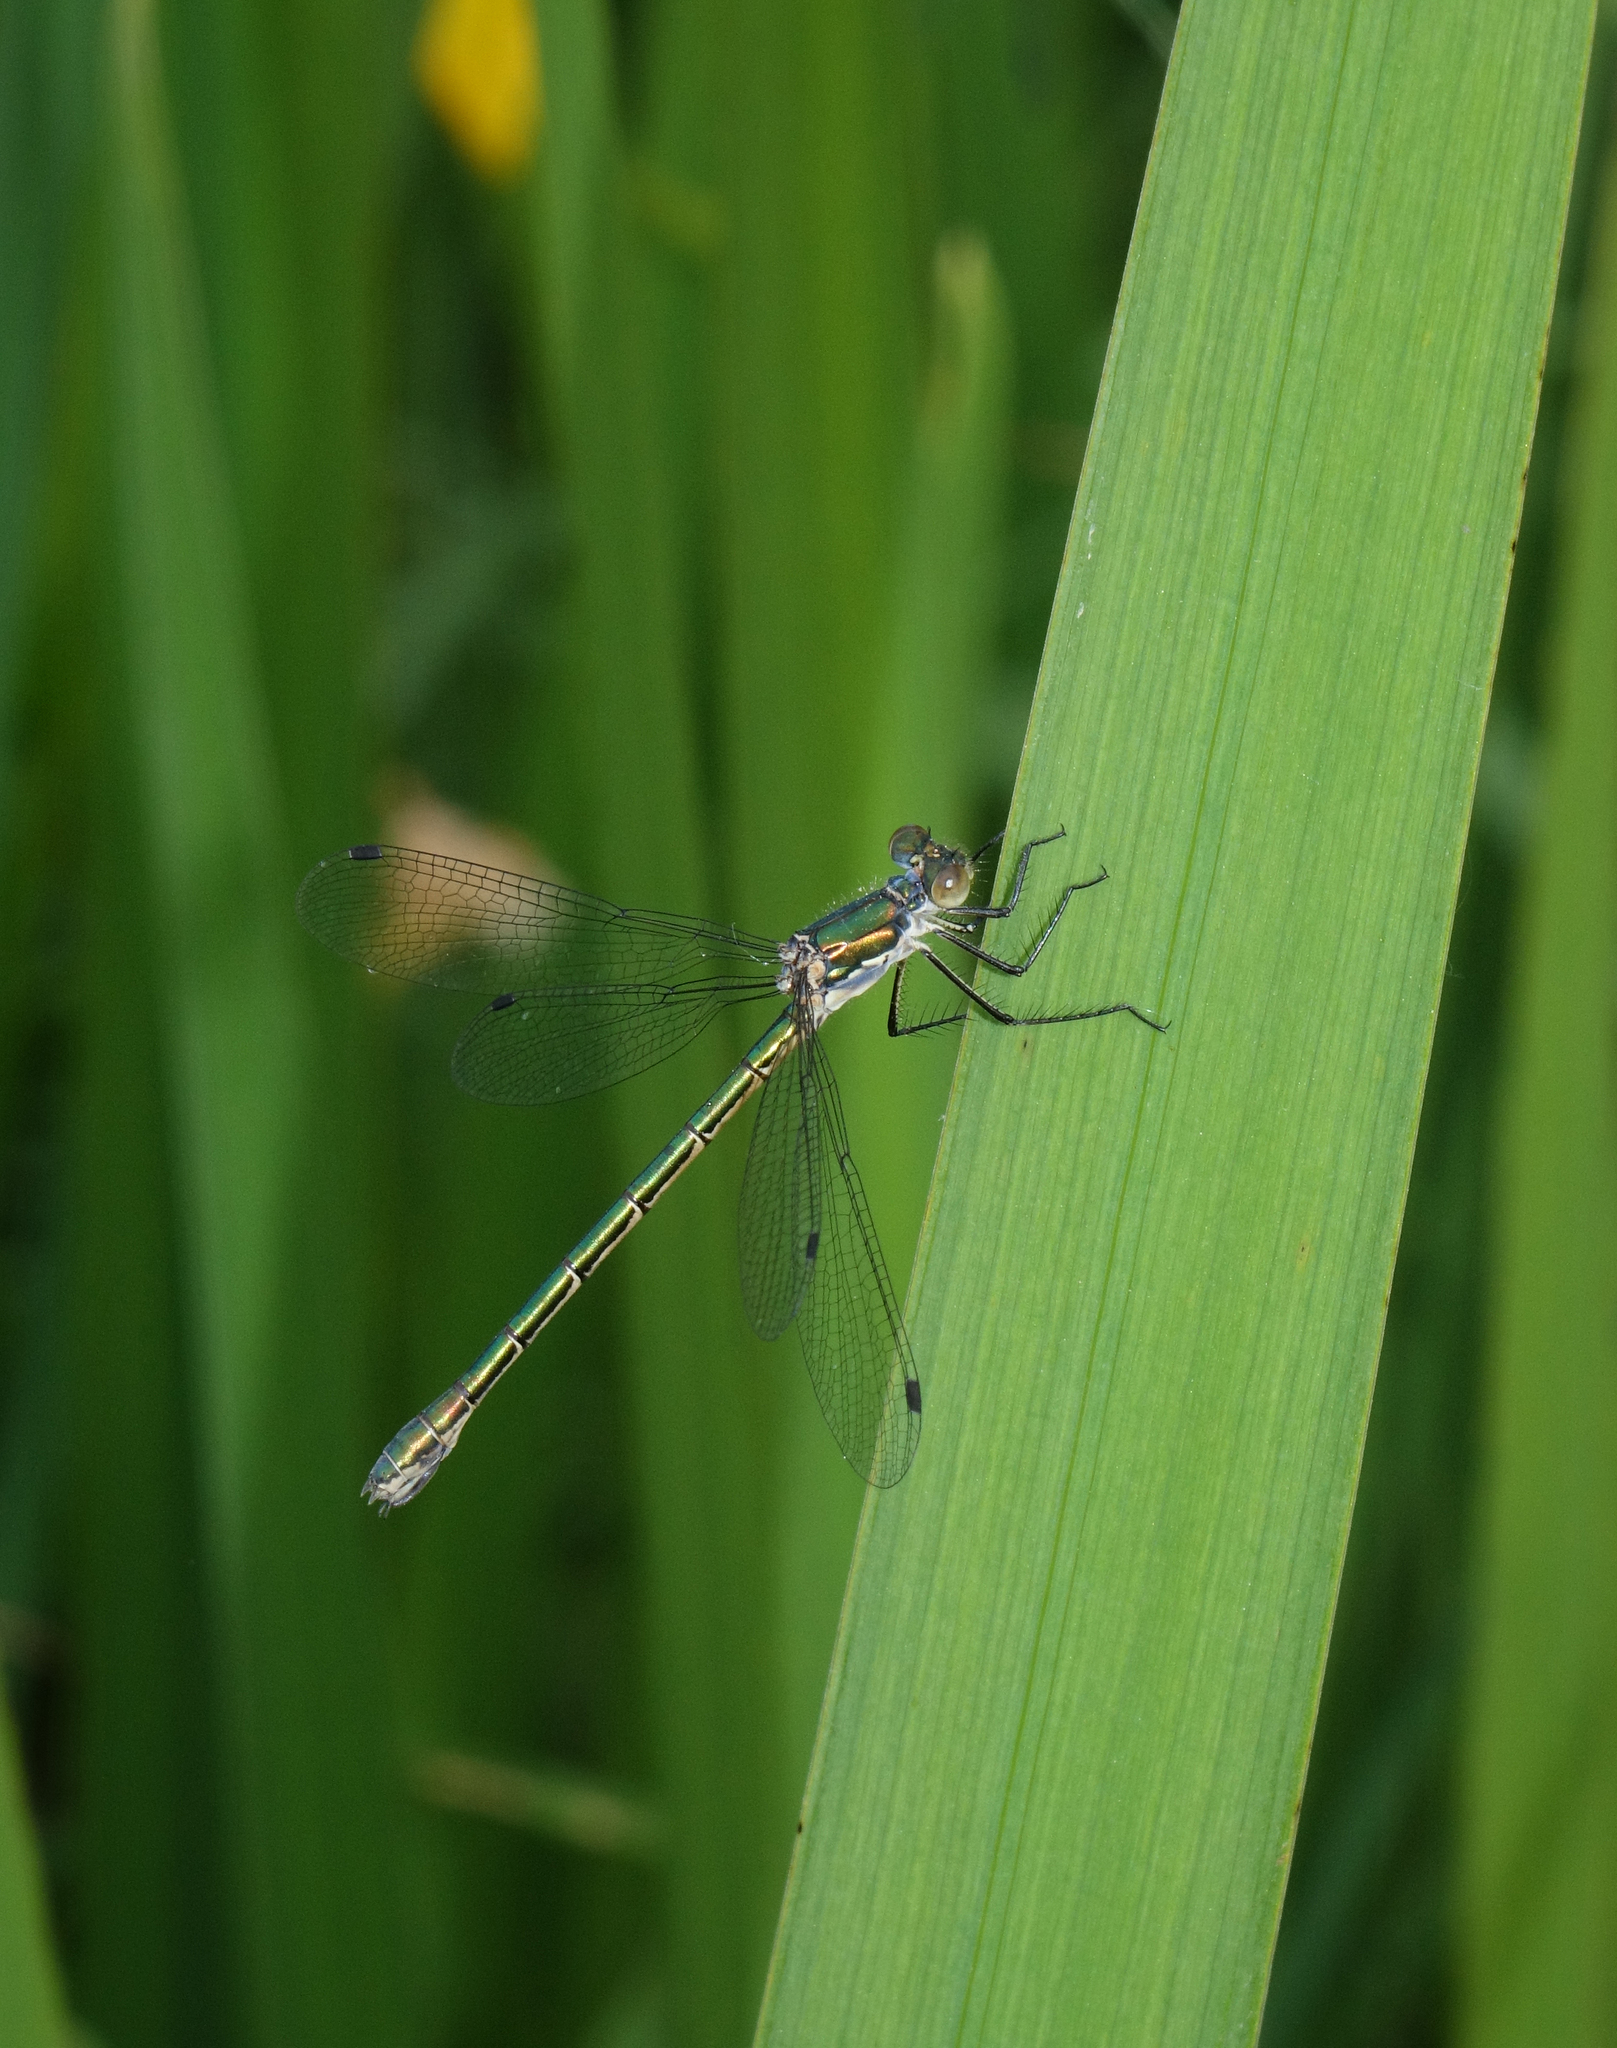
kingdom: Animalia
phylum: Arthropoda
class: Insecta
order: Odonata
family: Lestidae
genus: Lestes
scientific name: Lestes dryas
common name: Scarce emerald damselfly
